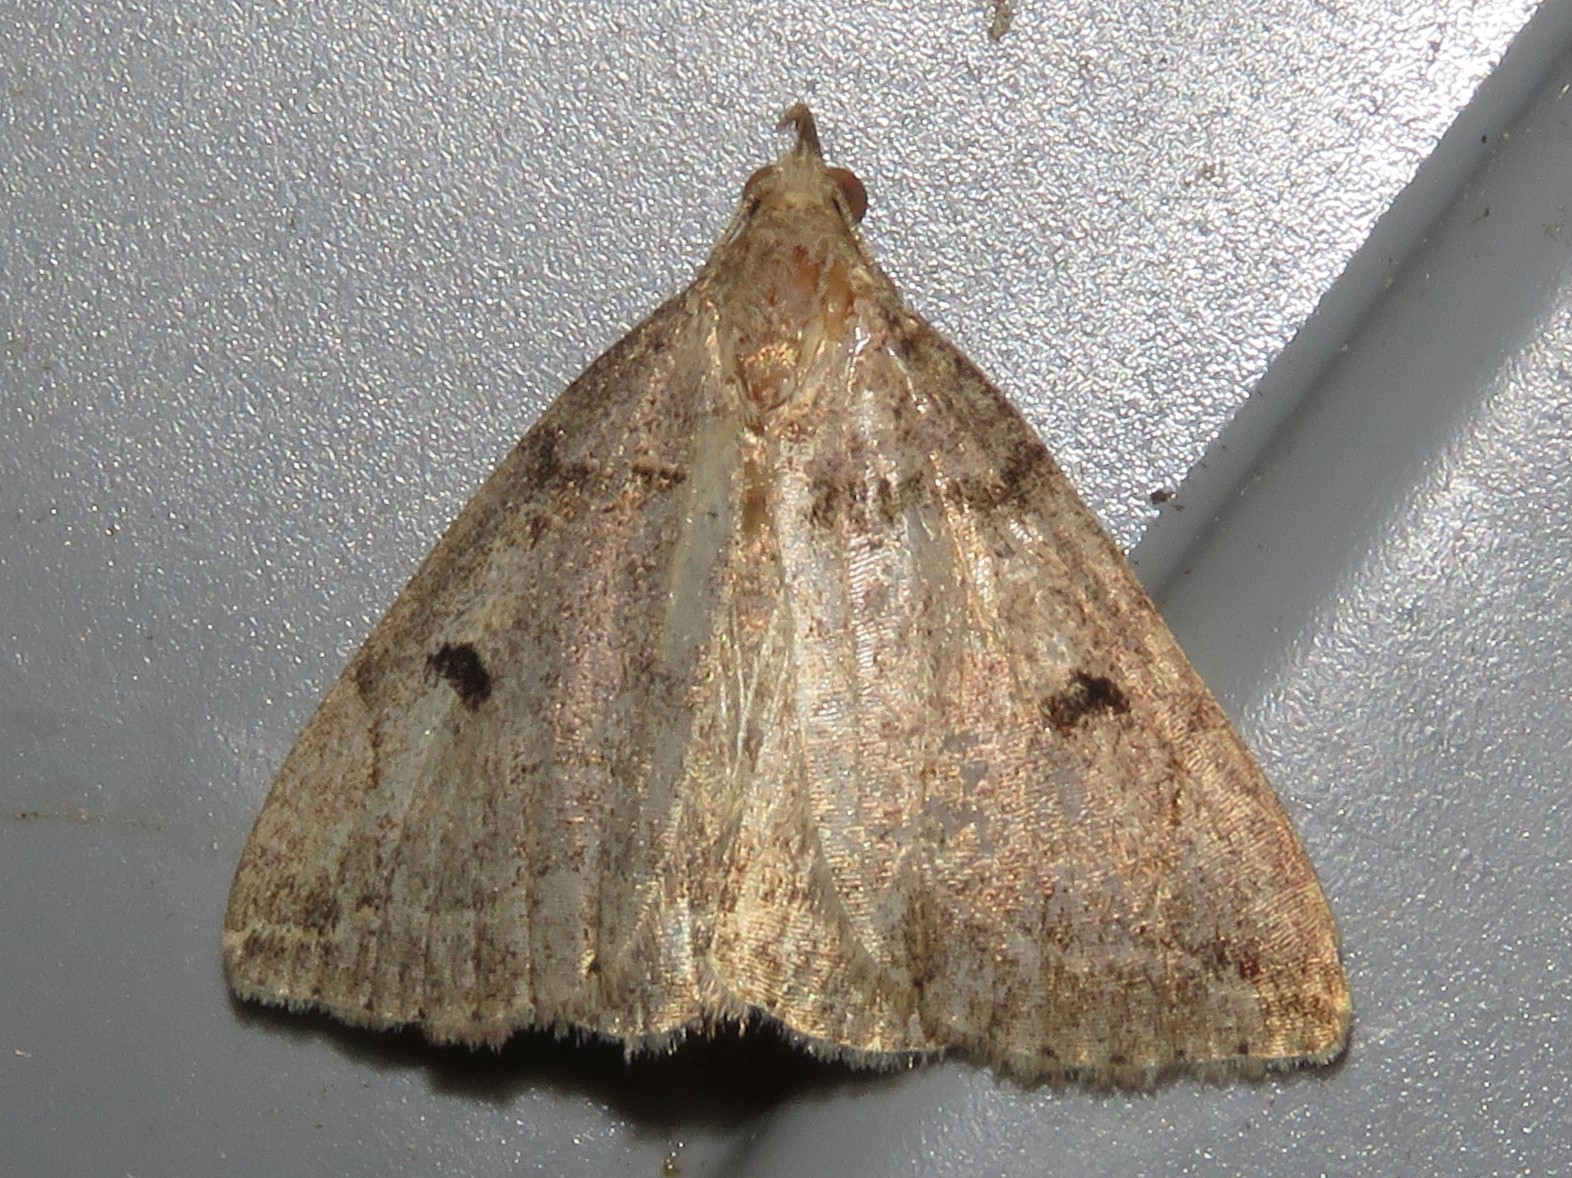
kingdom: Animalia
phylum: Arthropoda
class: Insecta
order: Lepidoptera
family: Erebidae
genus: Zanclognatha
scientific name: Zanclognatha laevigata
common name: Variable fan-foot
